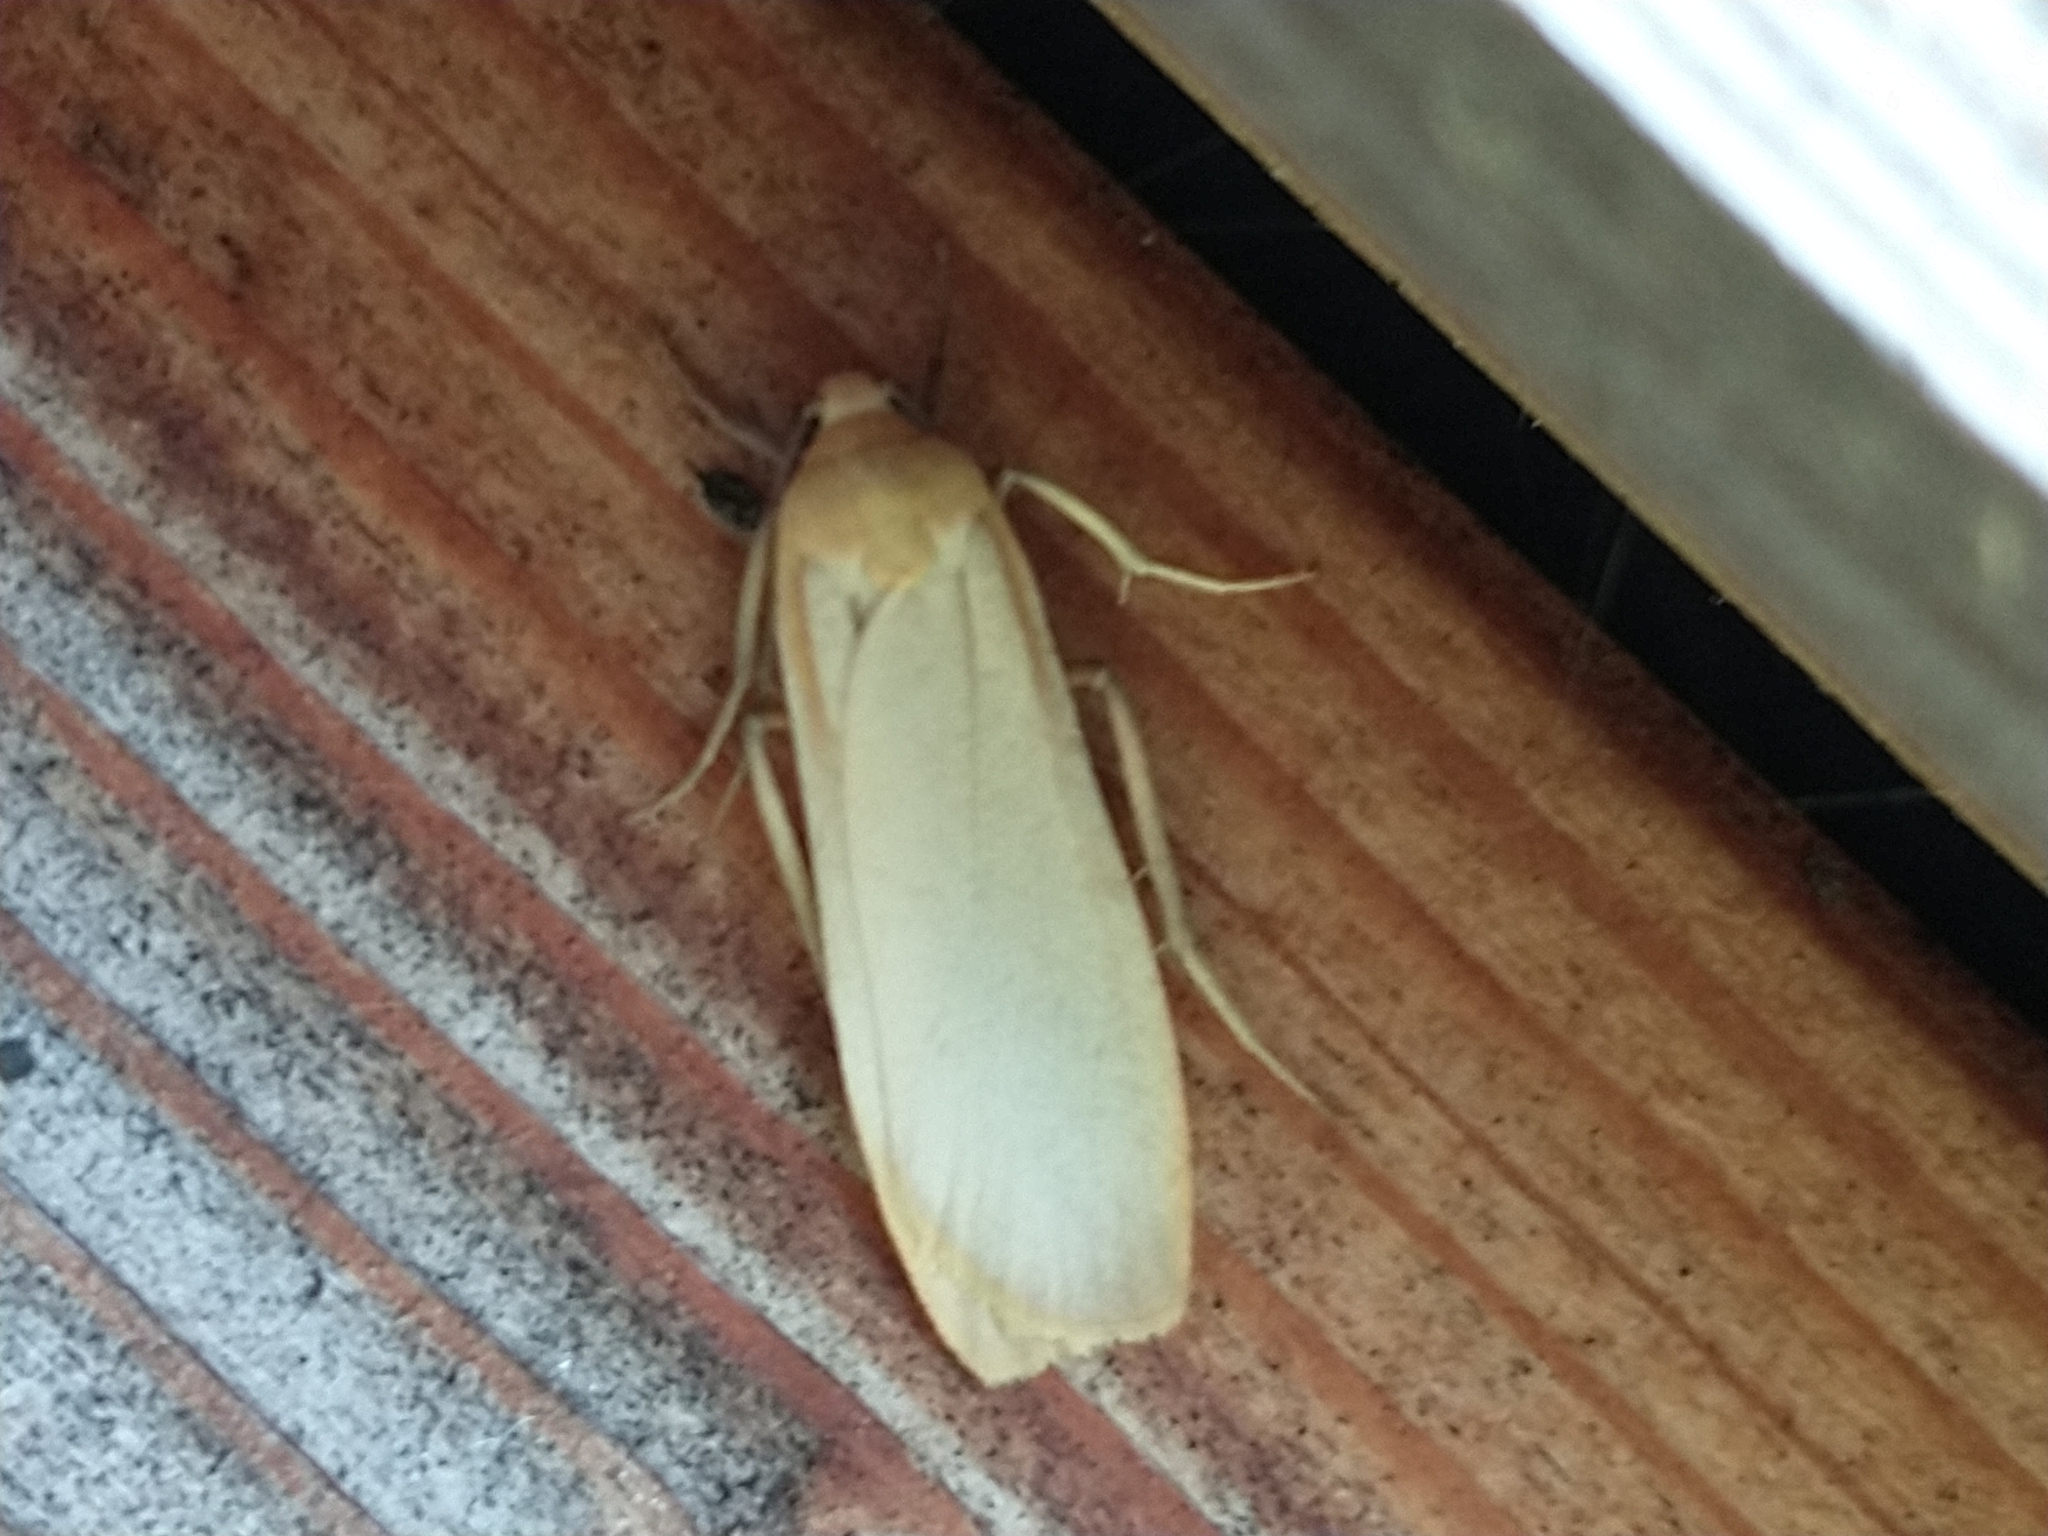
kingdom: Animalia
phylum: Arthropoda
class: Insecta
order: Lepidoptera
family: Erebidae
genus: Katha
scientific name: Katha depressa
